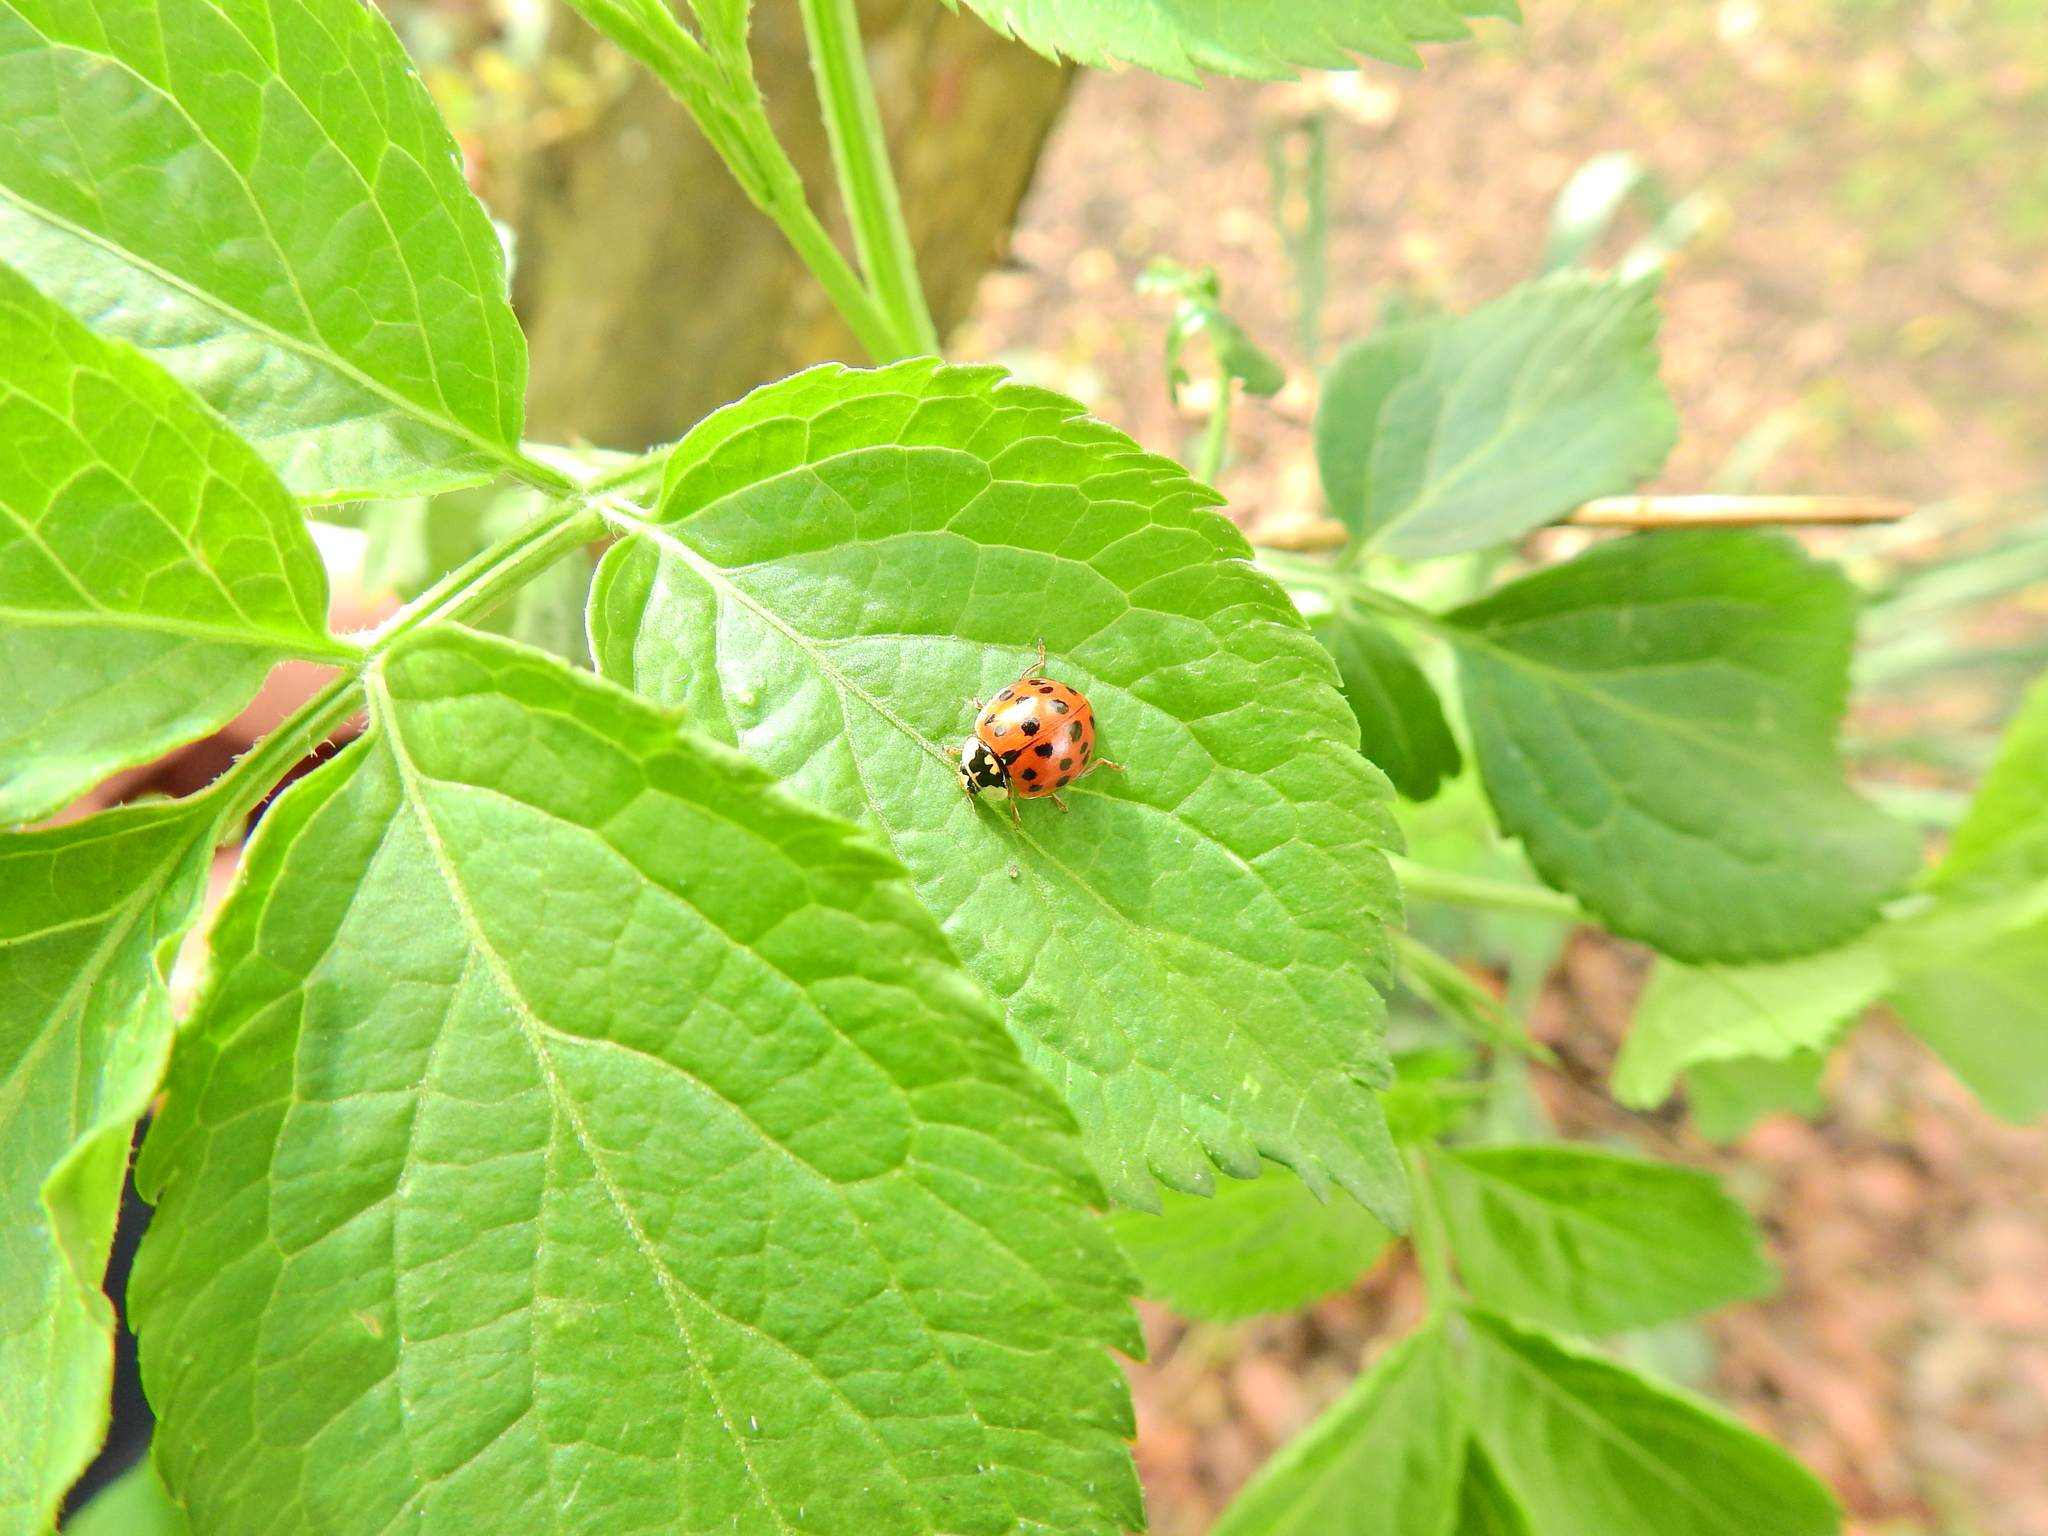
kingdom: Animalia
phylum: Arthropoda
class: Insecta
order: Coleoptera
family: Coccinellidae
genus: Harmonia
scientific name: Harmonia axyridis
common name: Harlequin ladybird
